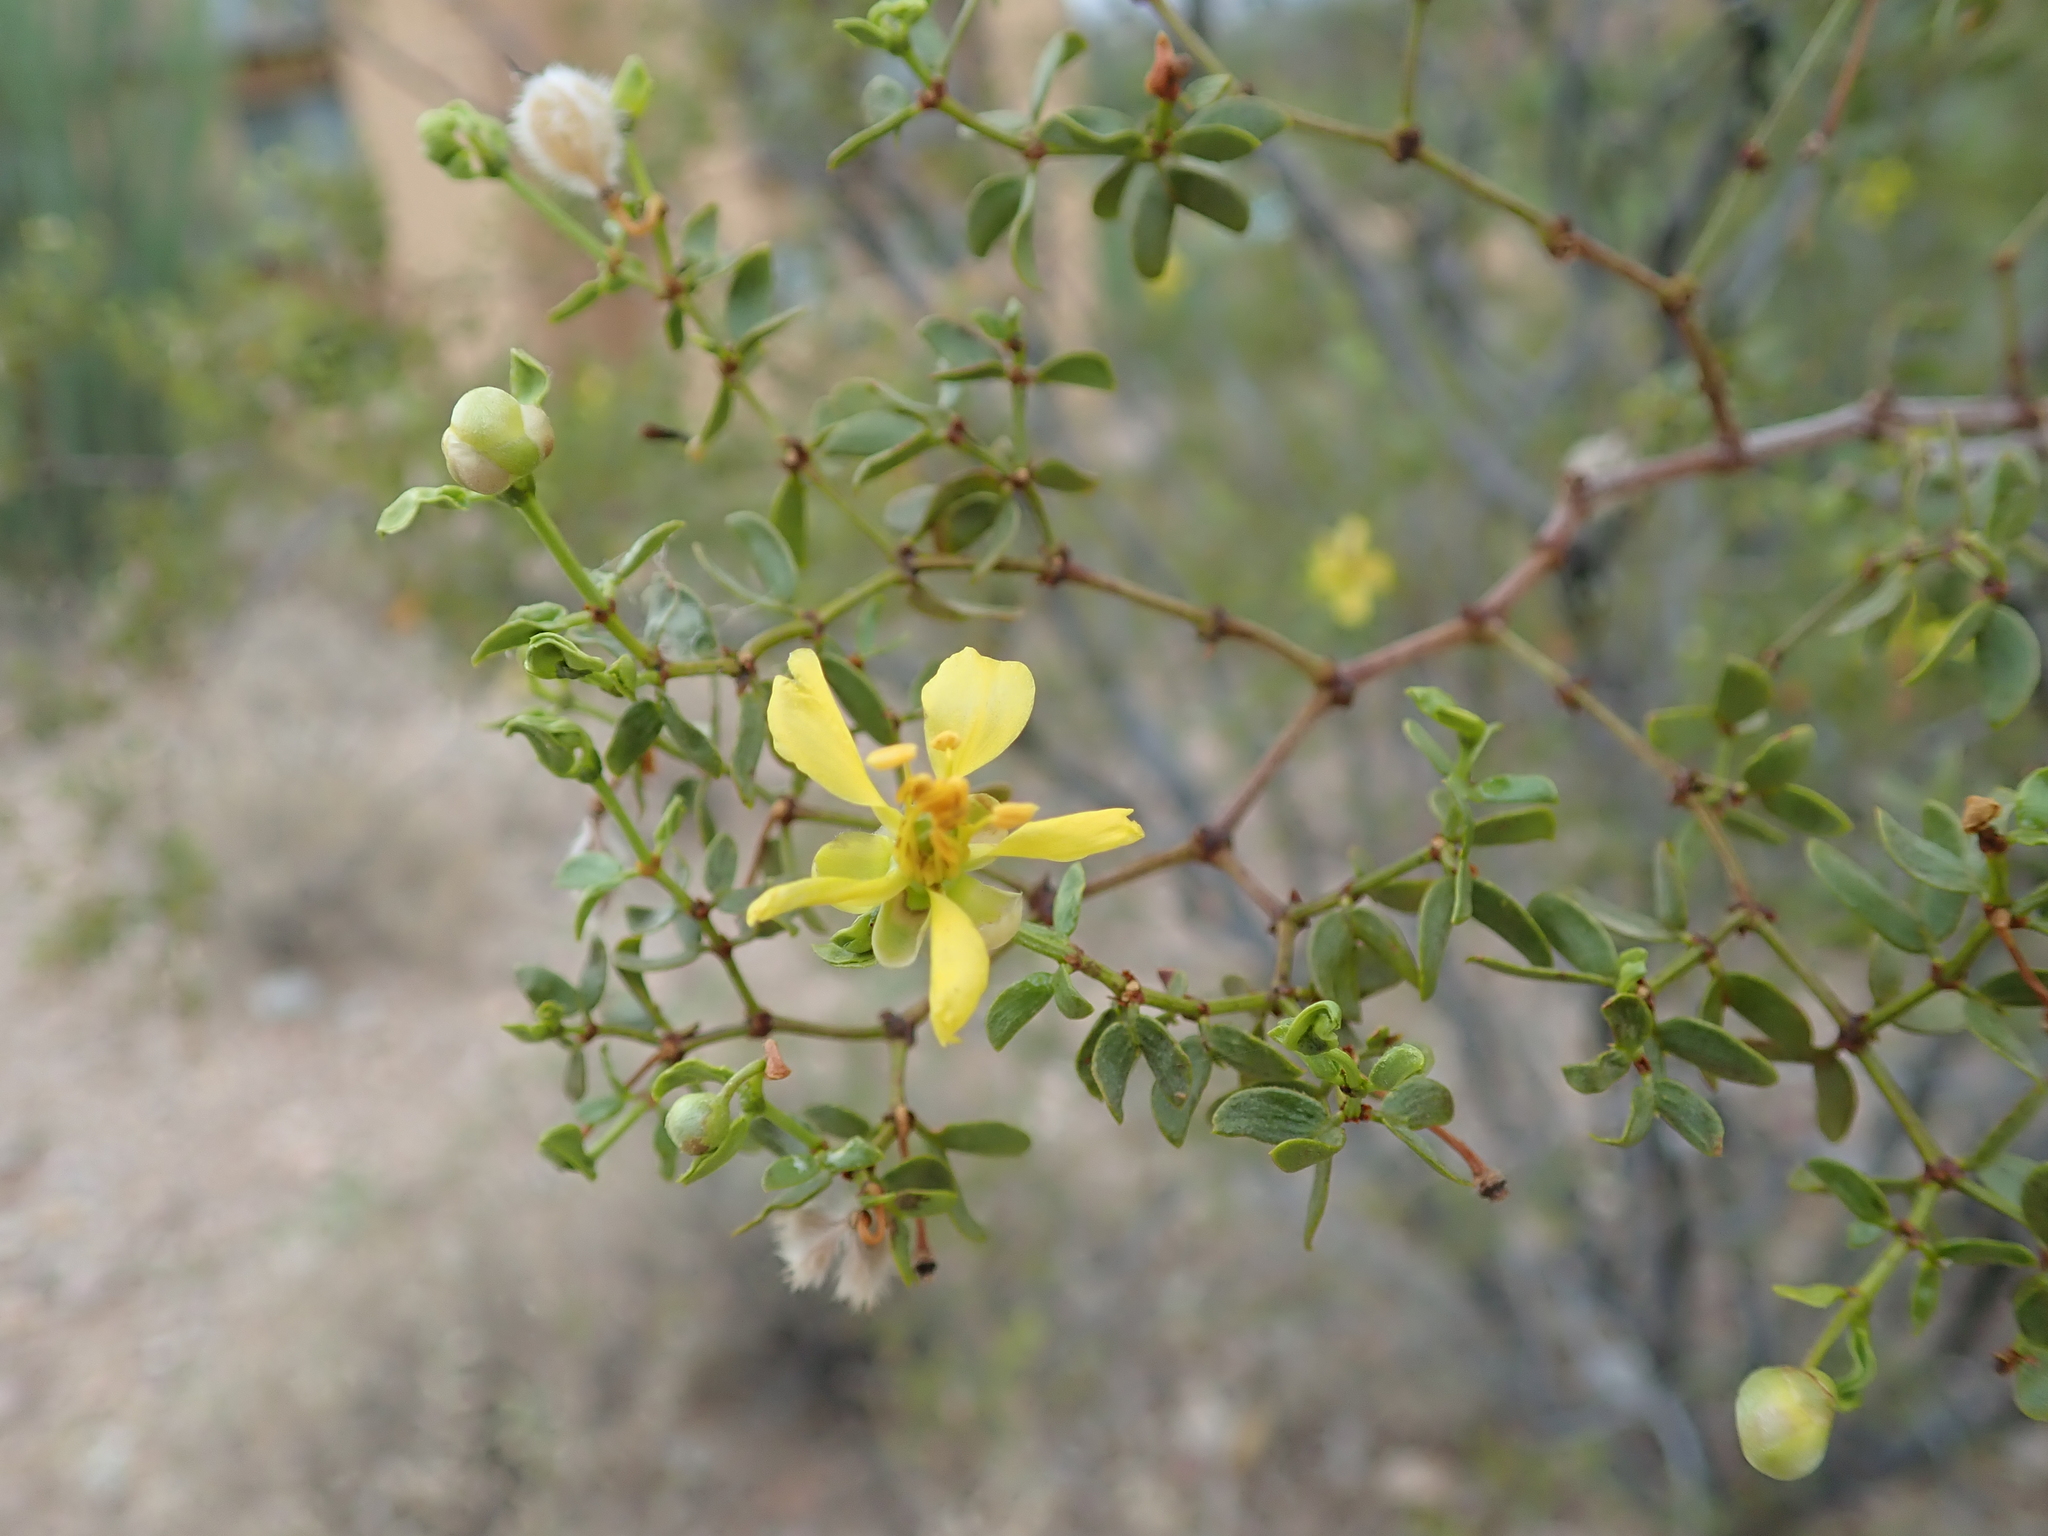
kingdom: Plantae
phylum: Tracheophyta
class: Magnoliopsida
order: Zygophyllales
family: Zygophyllaceae
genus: Larrea
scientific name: Larrea tridentata
